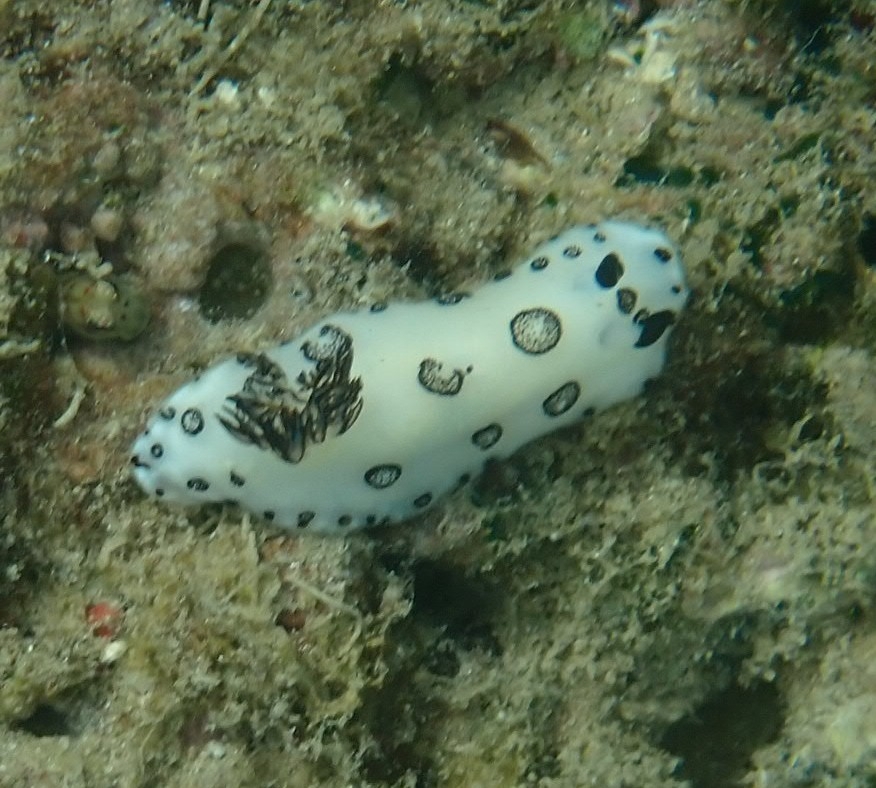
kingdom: Animalia
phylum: Mollusca
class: Gastropoda
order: Nudibranchia
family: Discodorididae
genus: Jorunna
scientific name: Jorunna funebris
